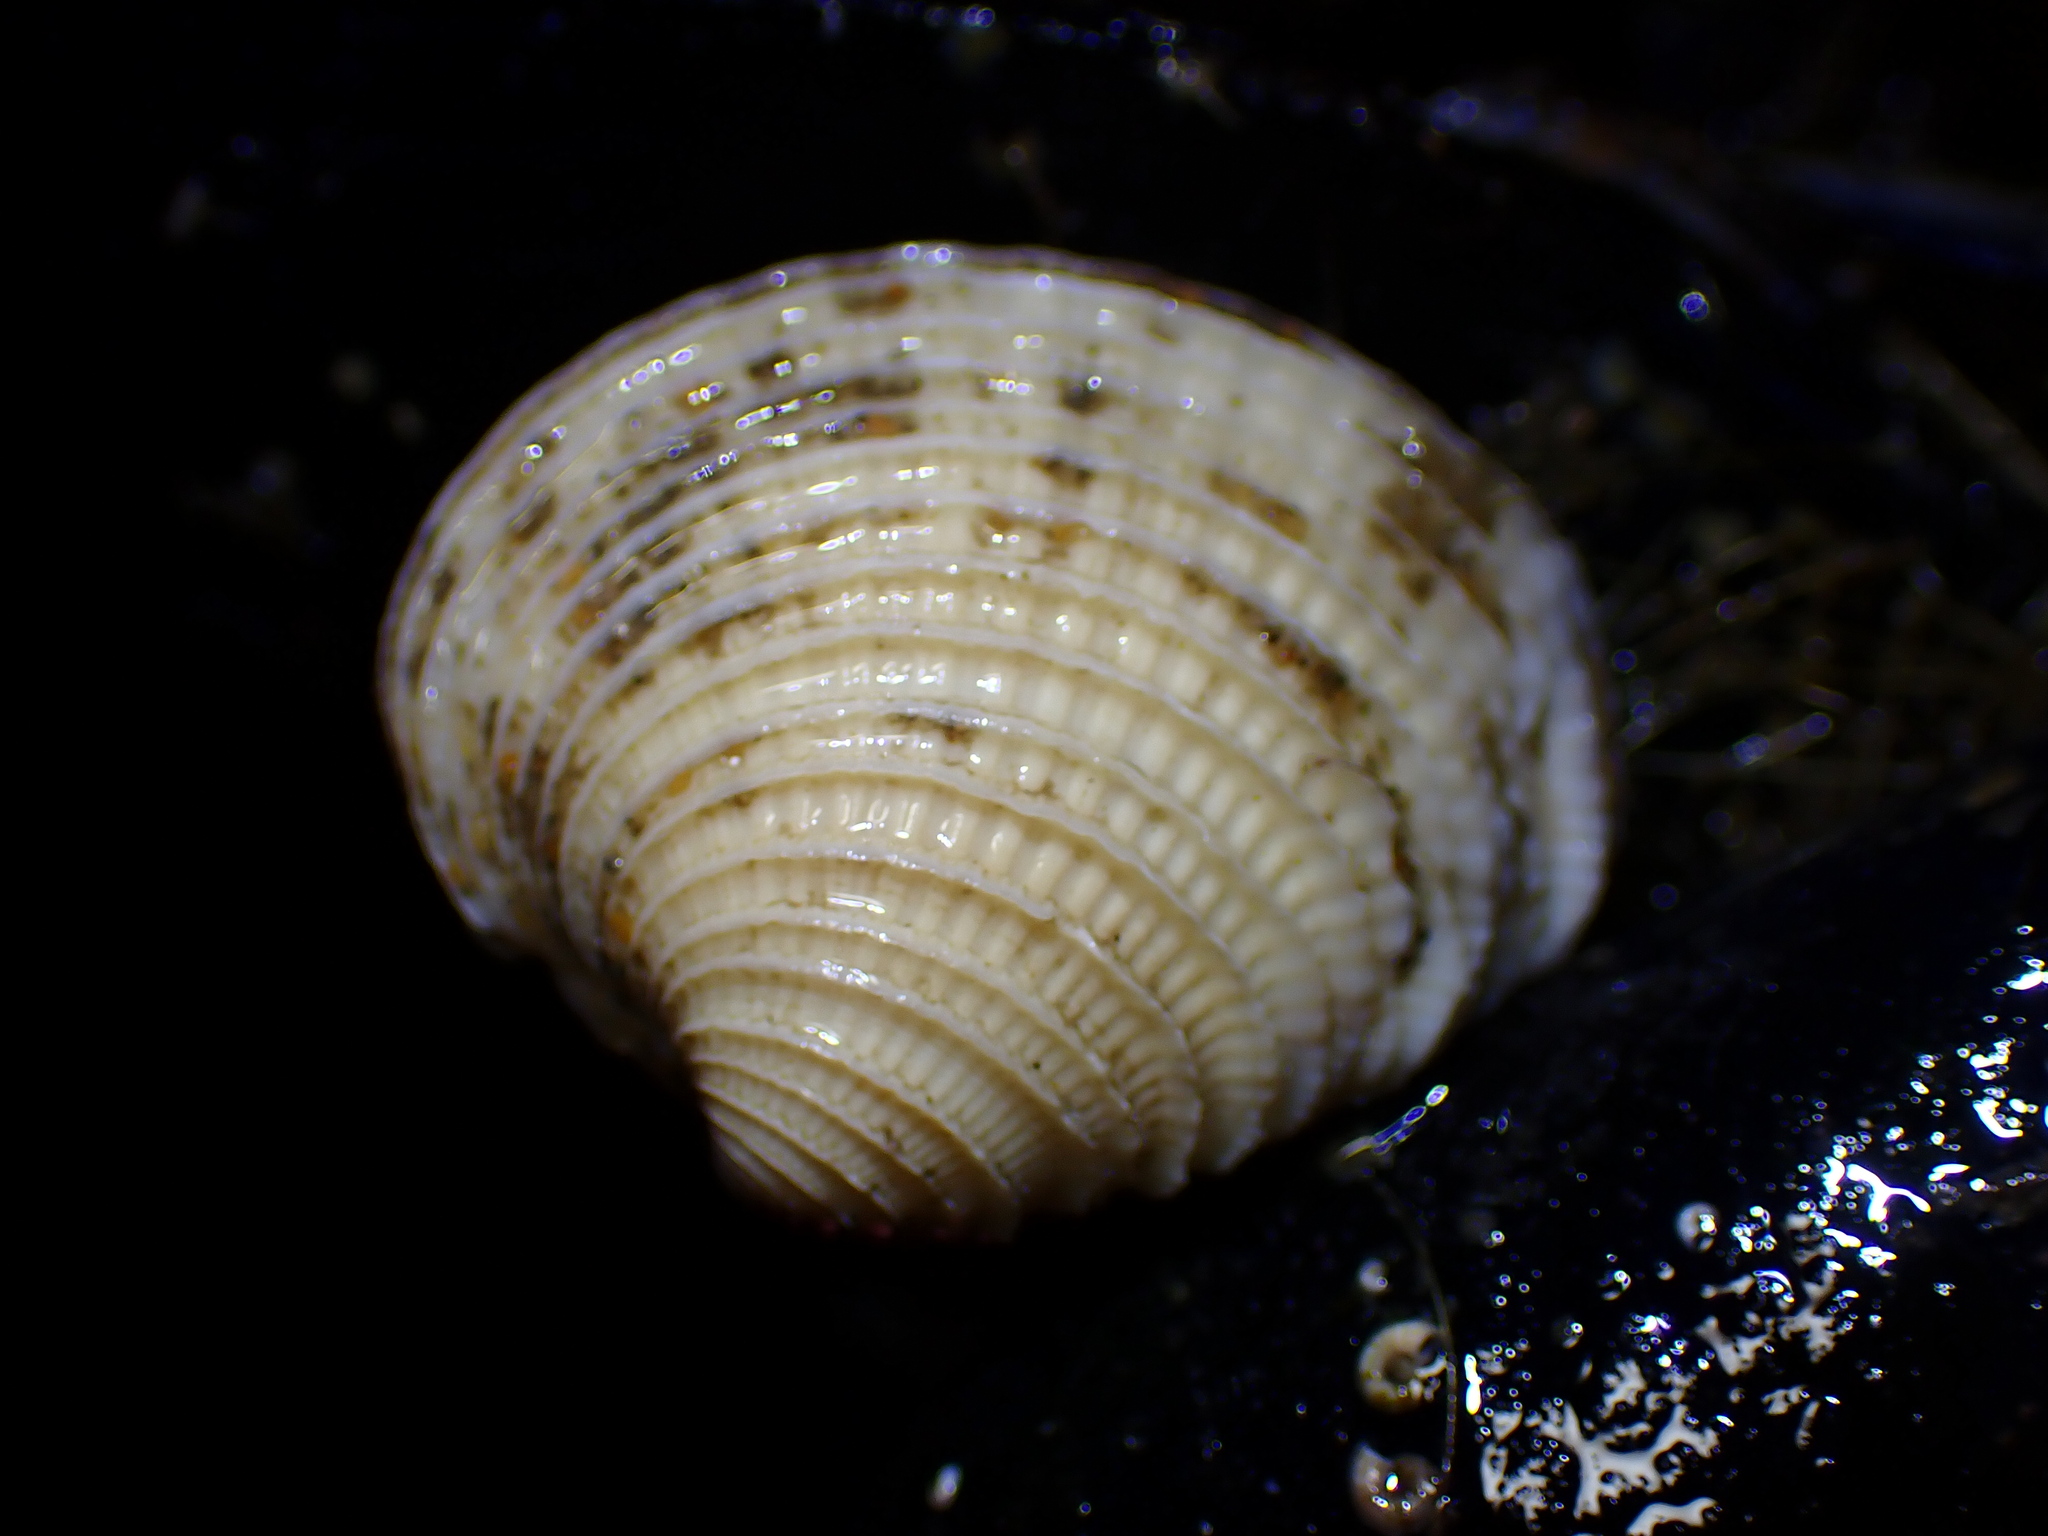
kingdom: Animalia
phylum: Mollusca
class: Bivalvia
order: Venerida
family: Veneridae
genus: Chione
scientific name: Chione undatella
